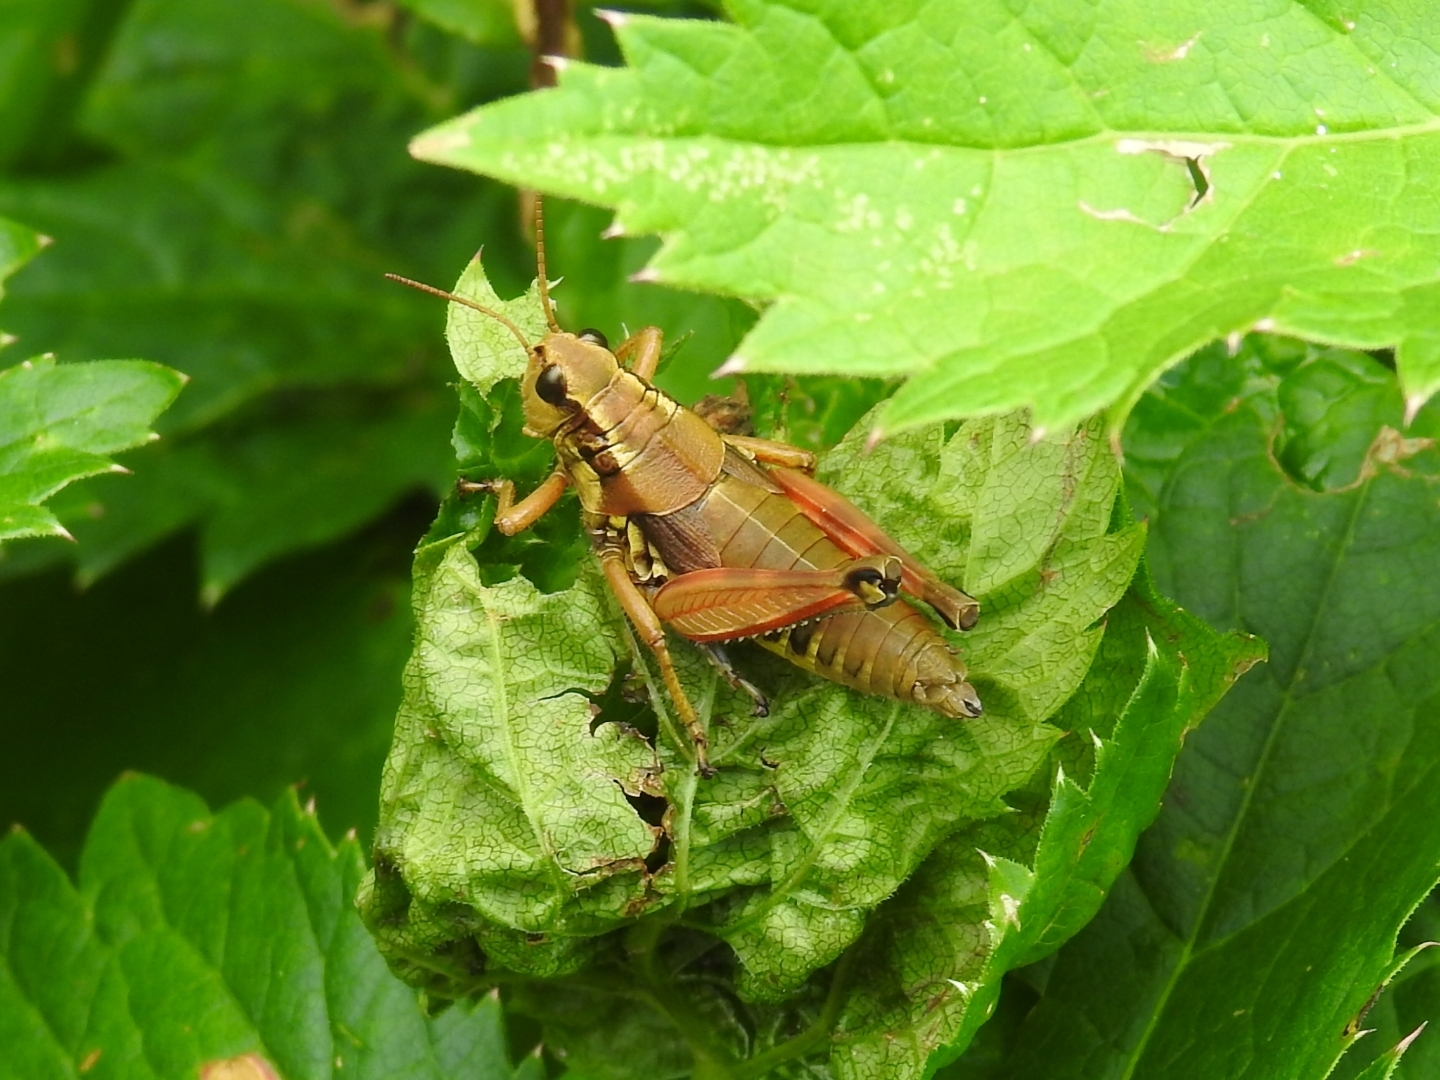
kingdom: Animalia
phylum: Arthropoda
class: Insecta
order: Orthoptera
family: Acrididae
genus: Podisma
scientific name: Podisma pedestris
